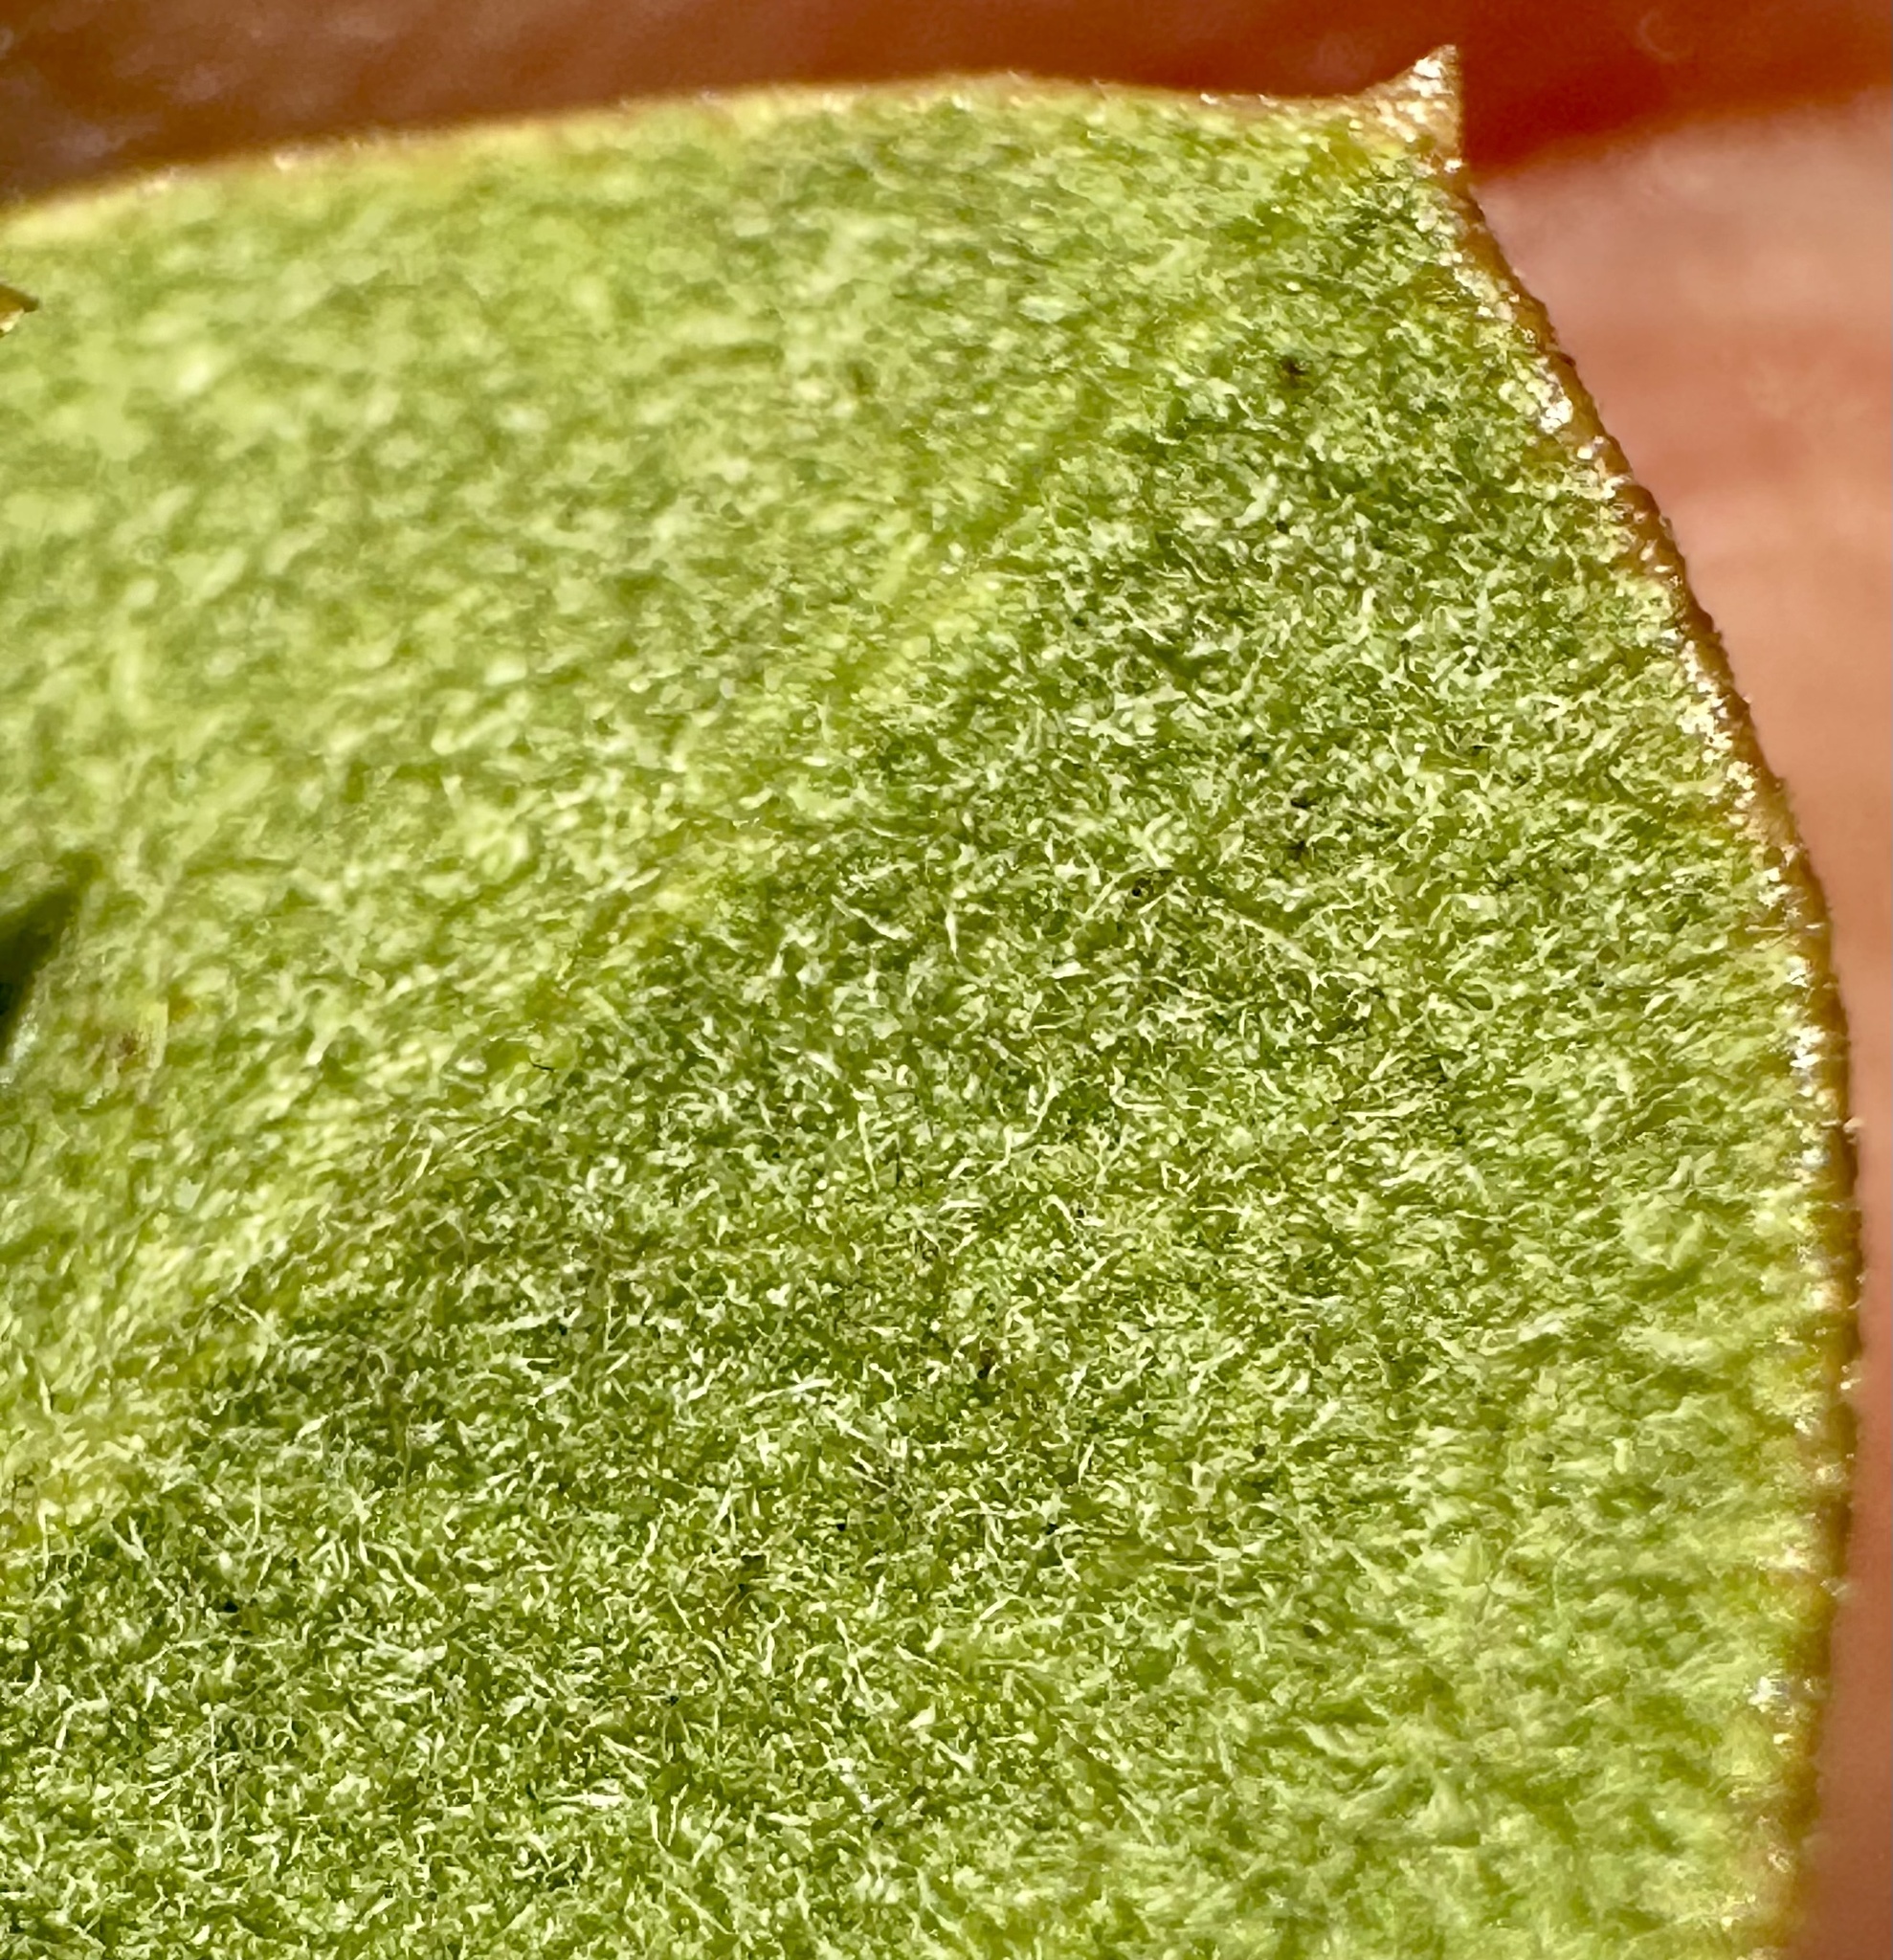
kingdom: Plantae
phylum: Tracheophyta
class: Magnoliopsida
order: Ericales
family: Ericaceae
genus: Arctostaphylos
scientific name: Arctostaphylos tomentosa
